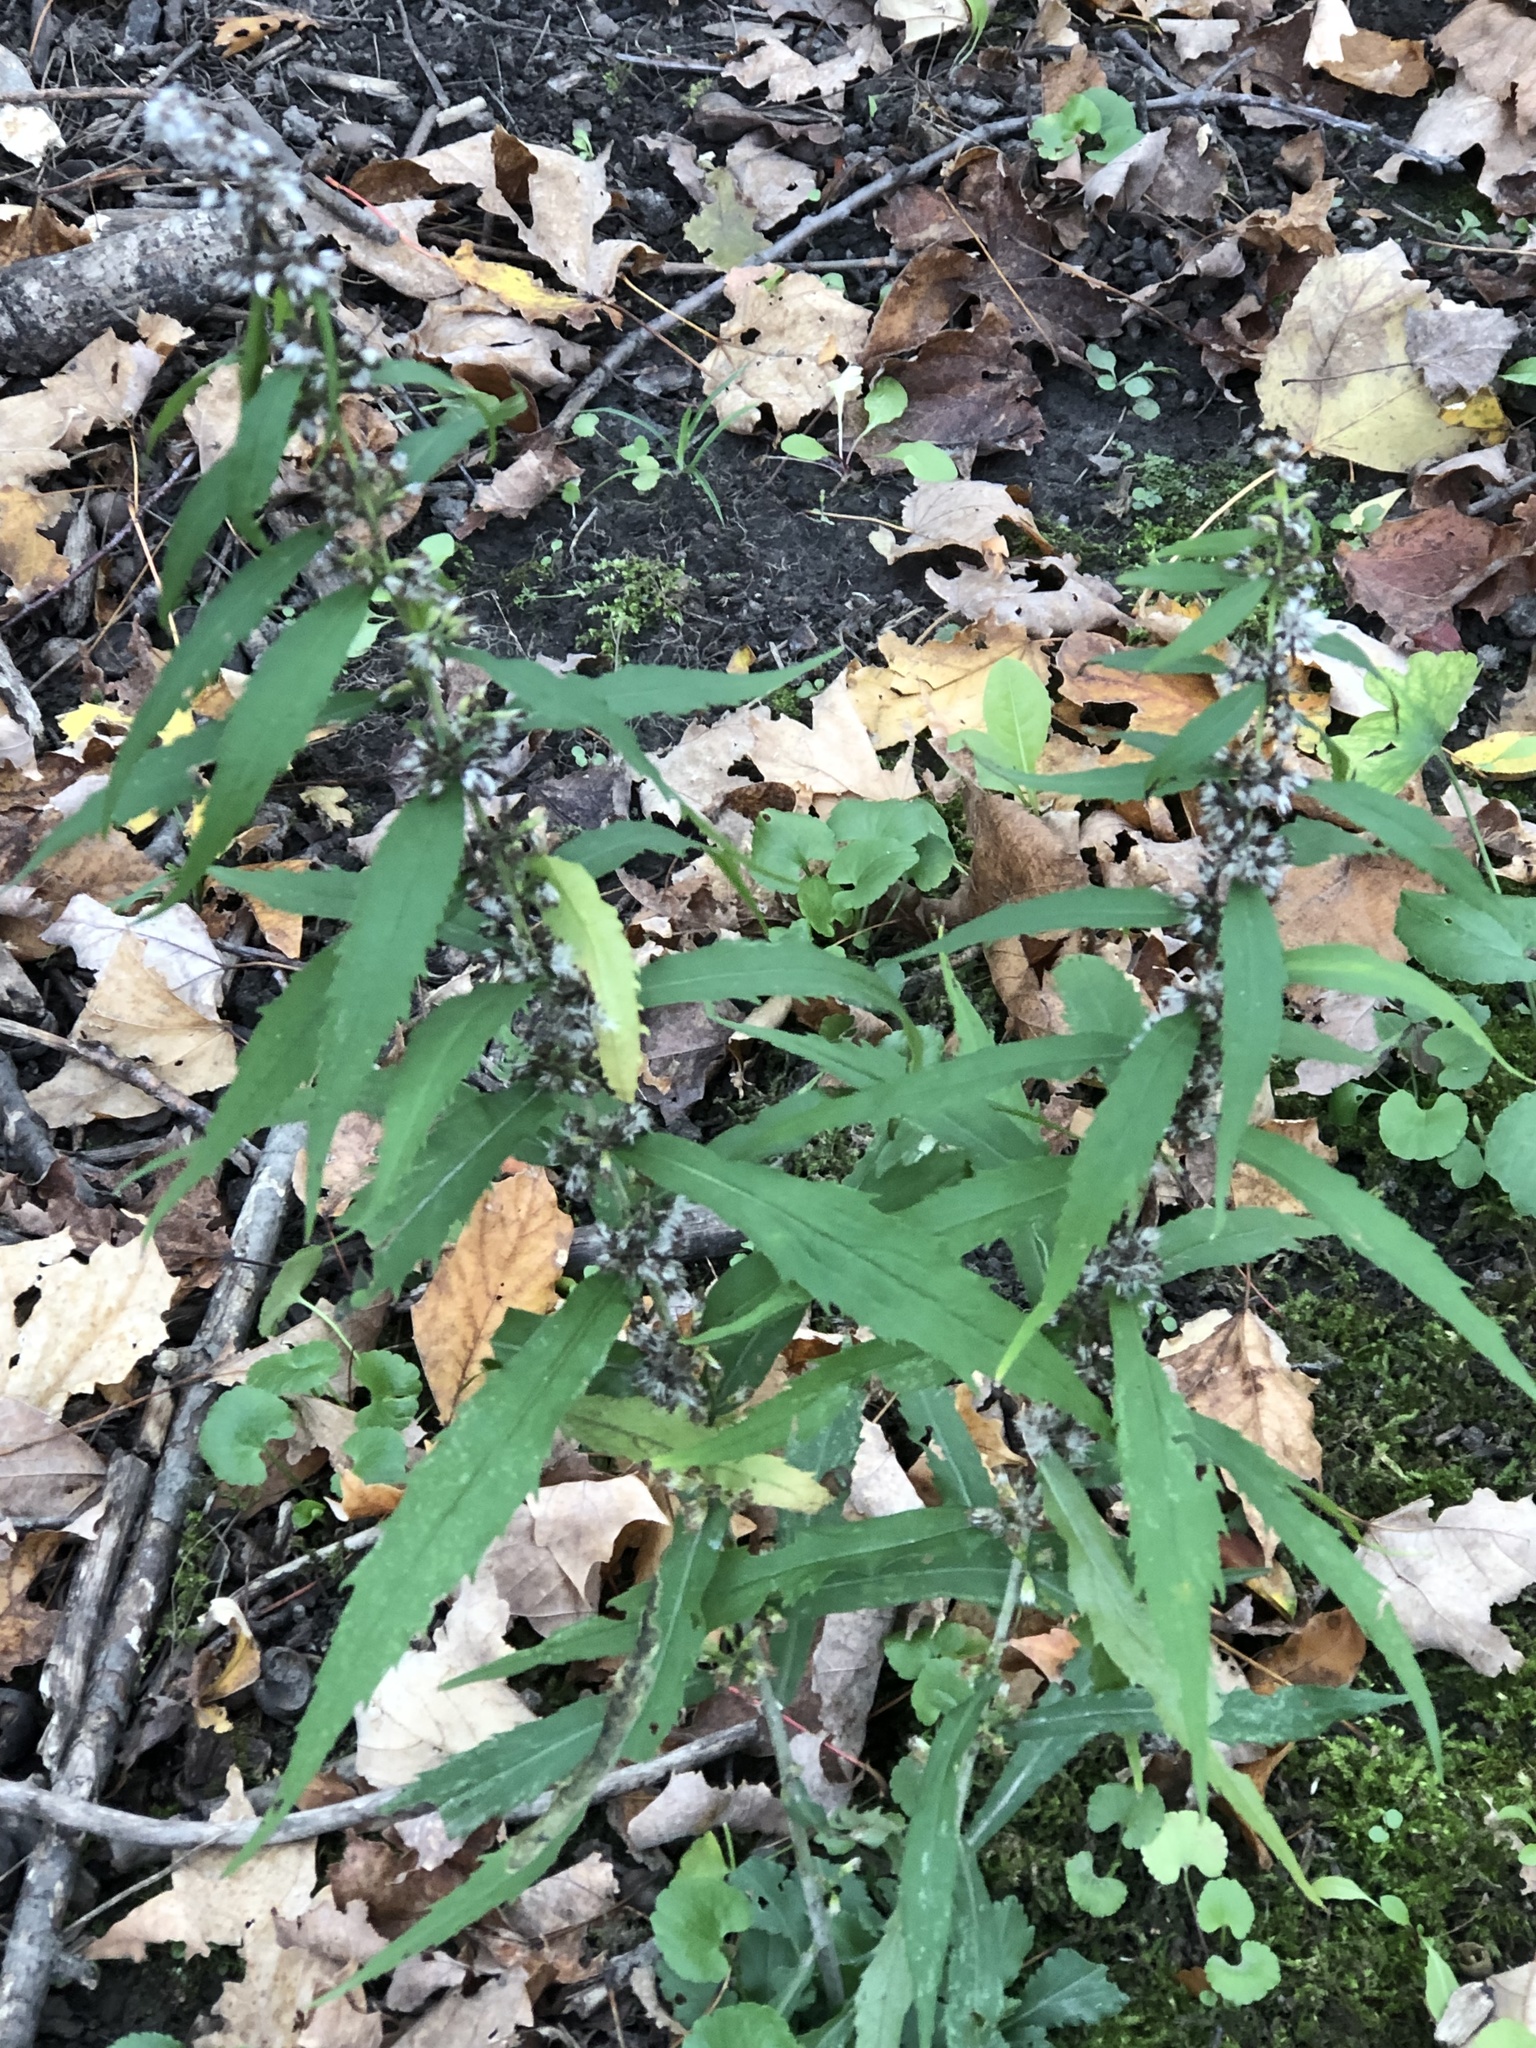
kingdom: Plantae
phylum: Tracheophyta
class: Magnoliopsida
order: Asterales
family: Asteraceae
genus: Solidago
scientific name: Solidago caesia
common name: Woodland goldenrod
